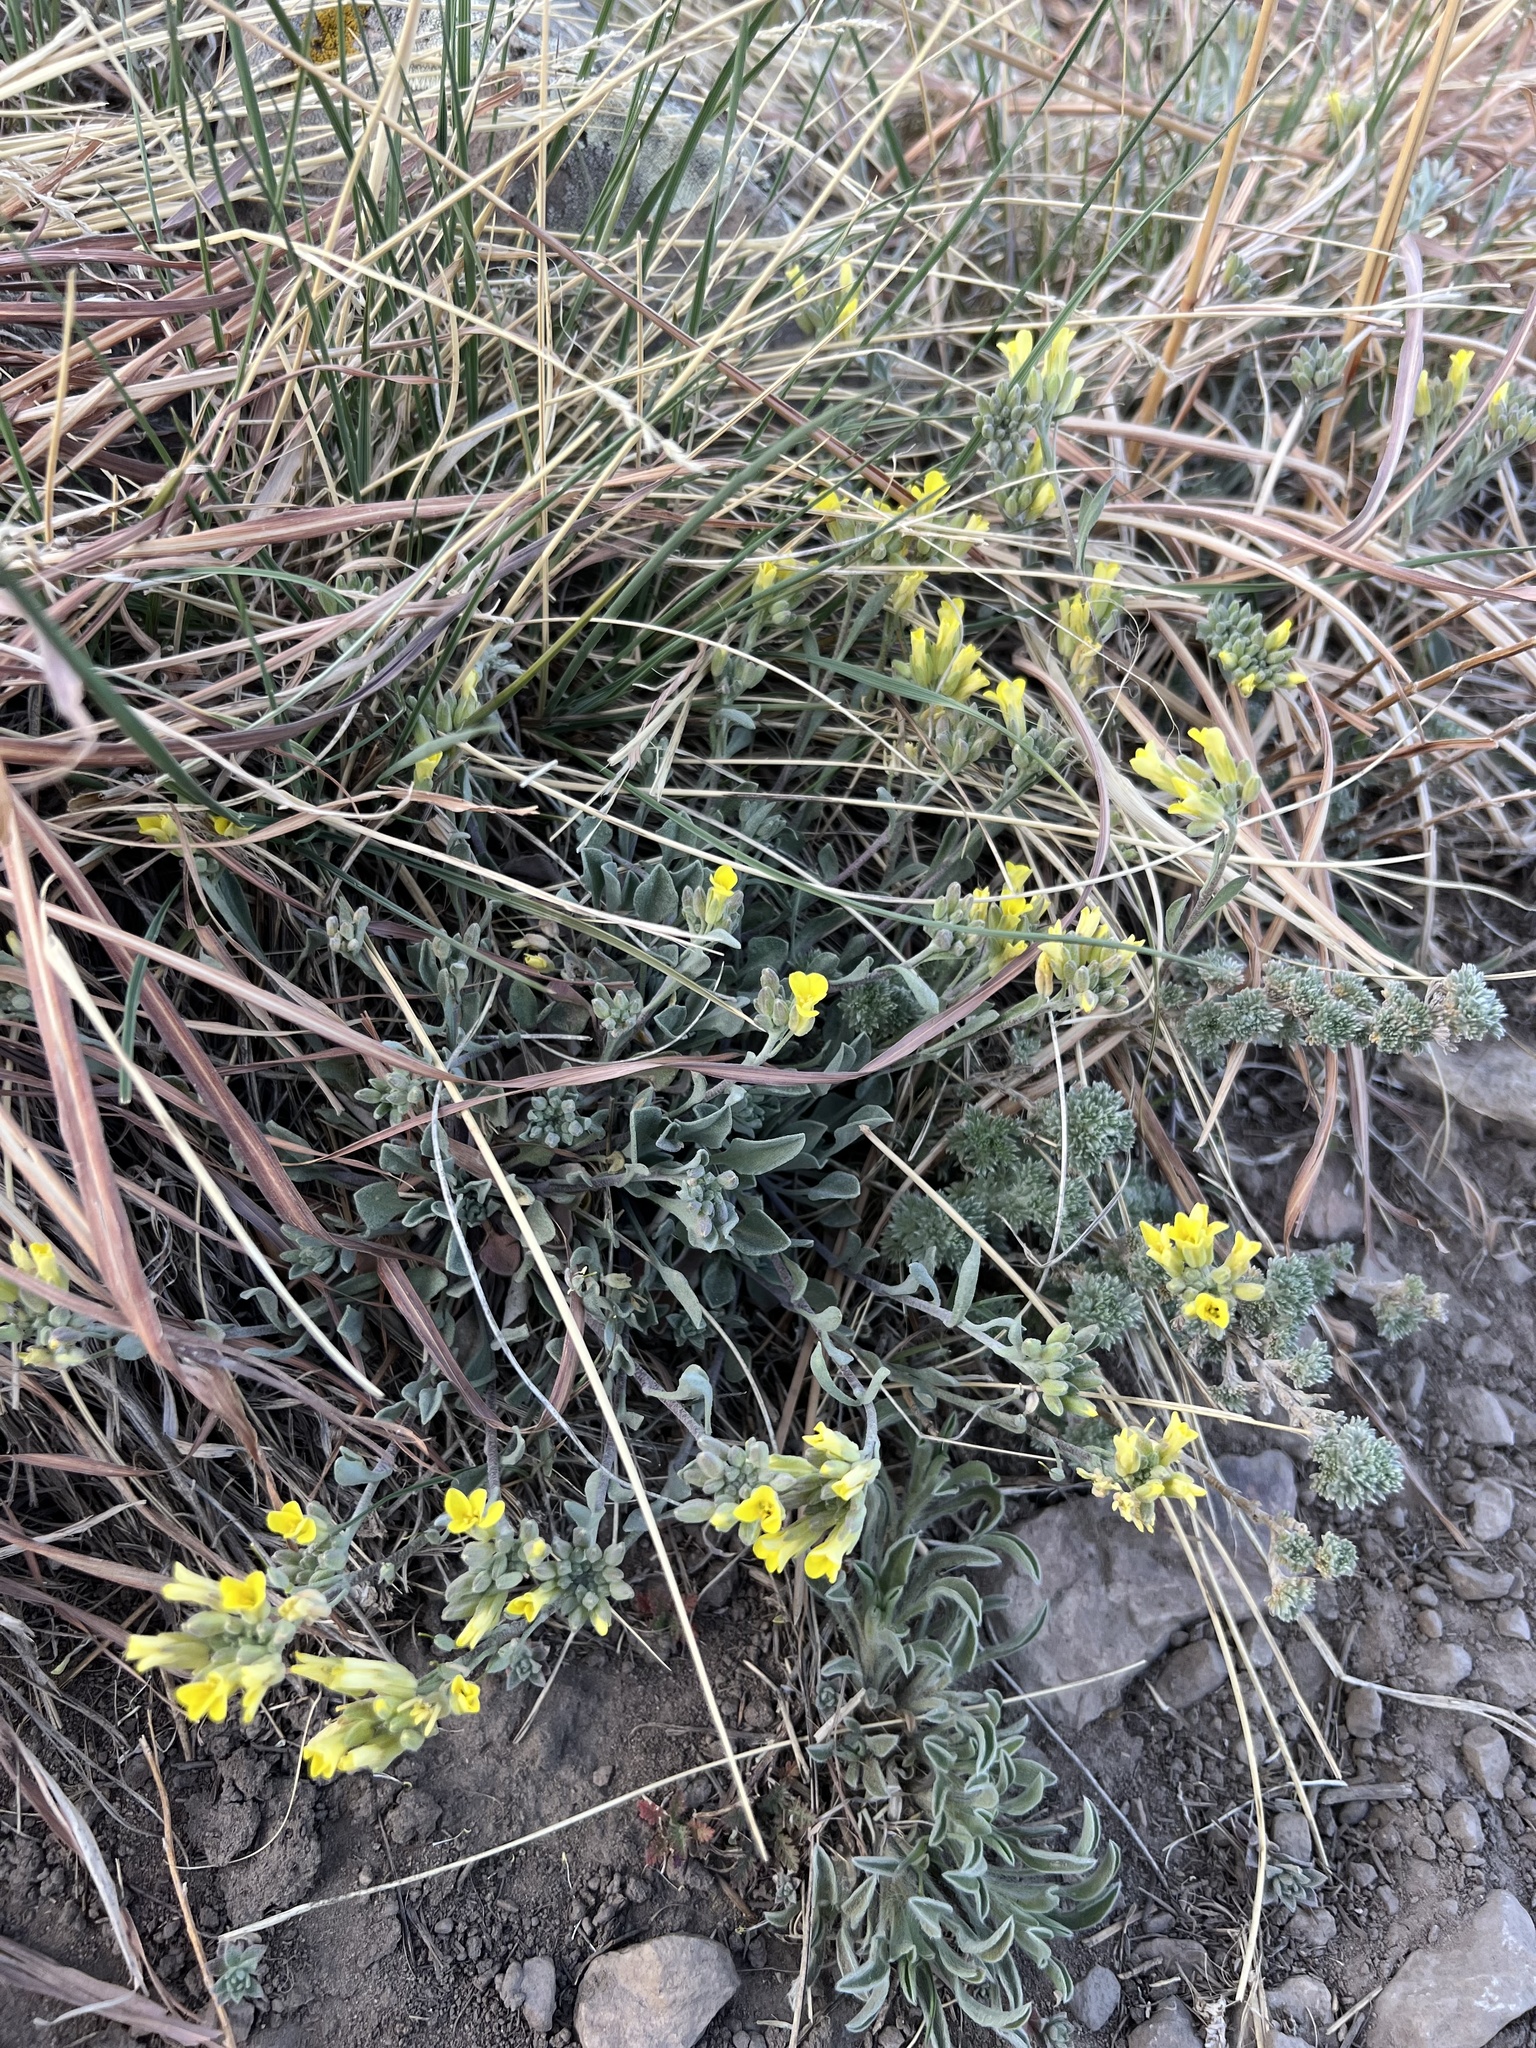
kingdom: Plantae
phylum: Tracheophyta
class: Magnoliopsida
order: Brassicales
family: Brassicaceae
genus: Physaria
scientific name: Physaria montana
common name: Mountain bladderpod
